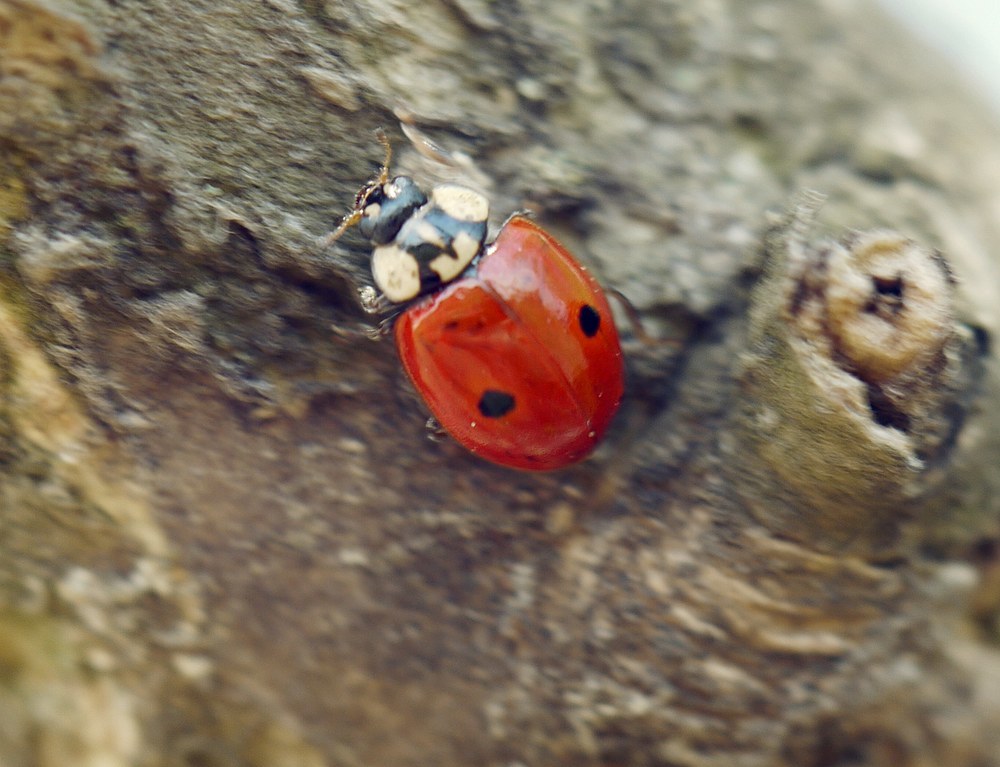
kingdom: Animalia
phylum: Arthropoda
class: Insecta
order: Coleoptera
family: Coccinellidae
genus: Adalia
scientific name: Adalia bipunctata
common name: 2-spot ladybird
